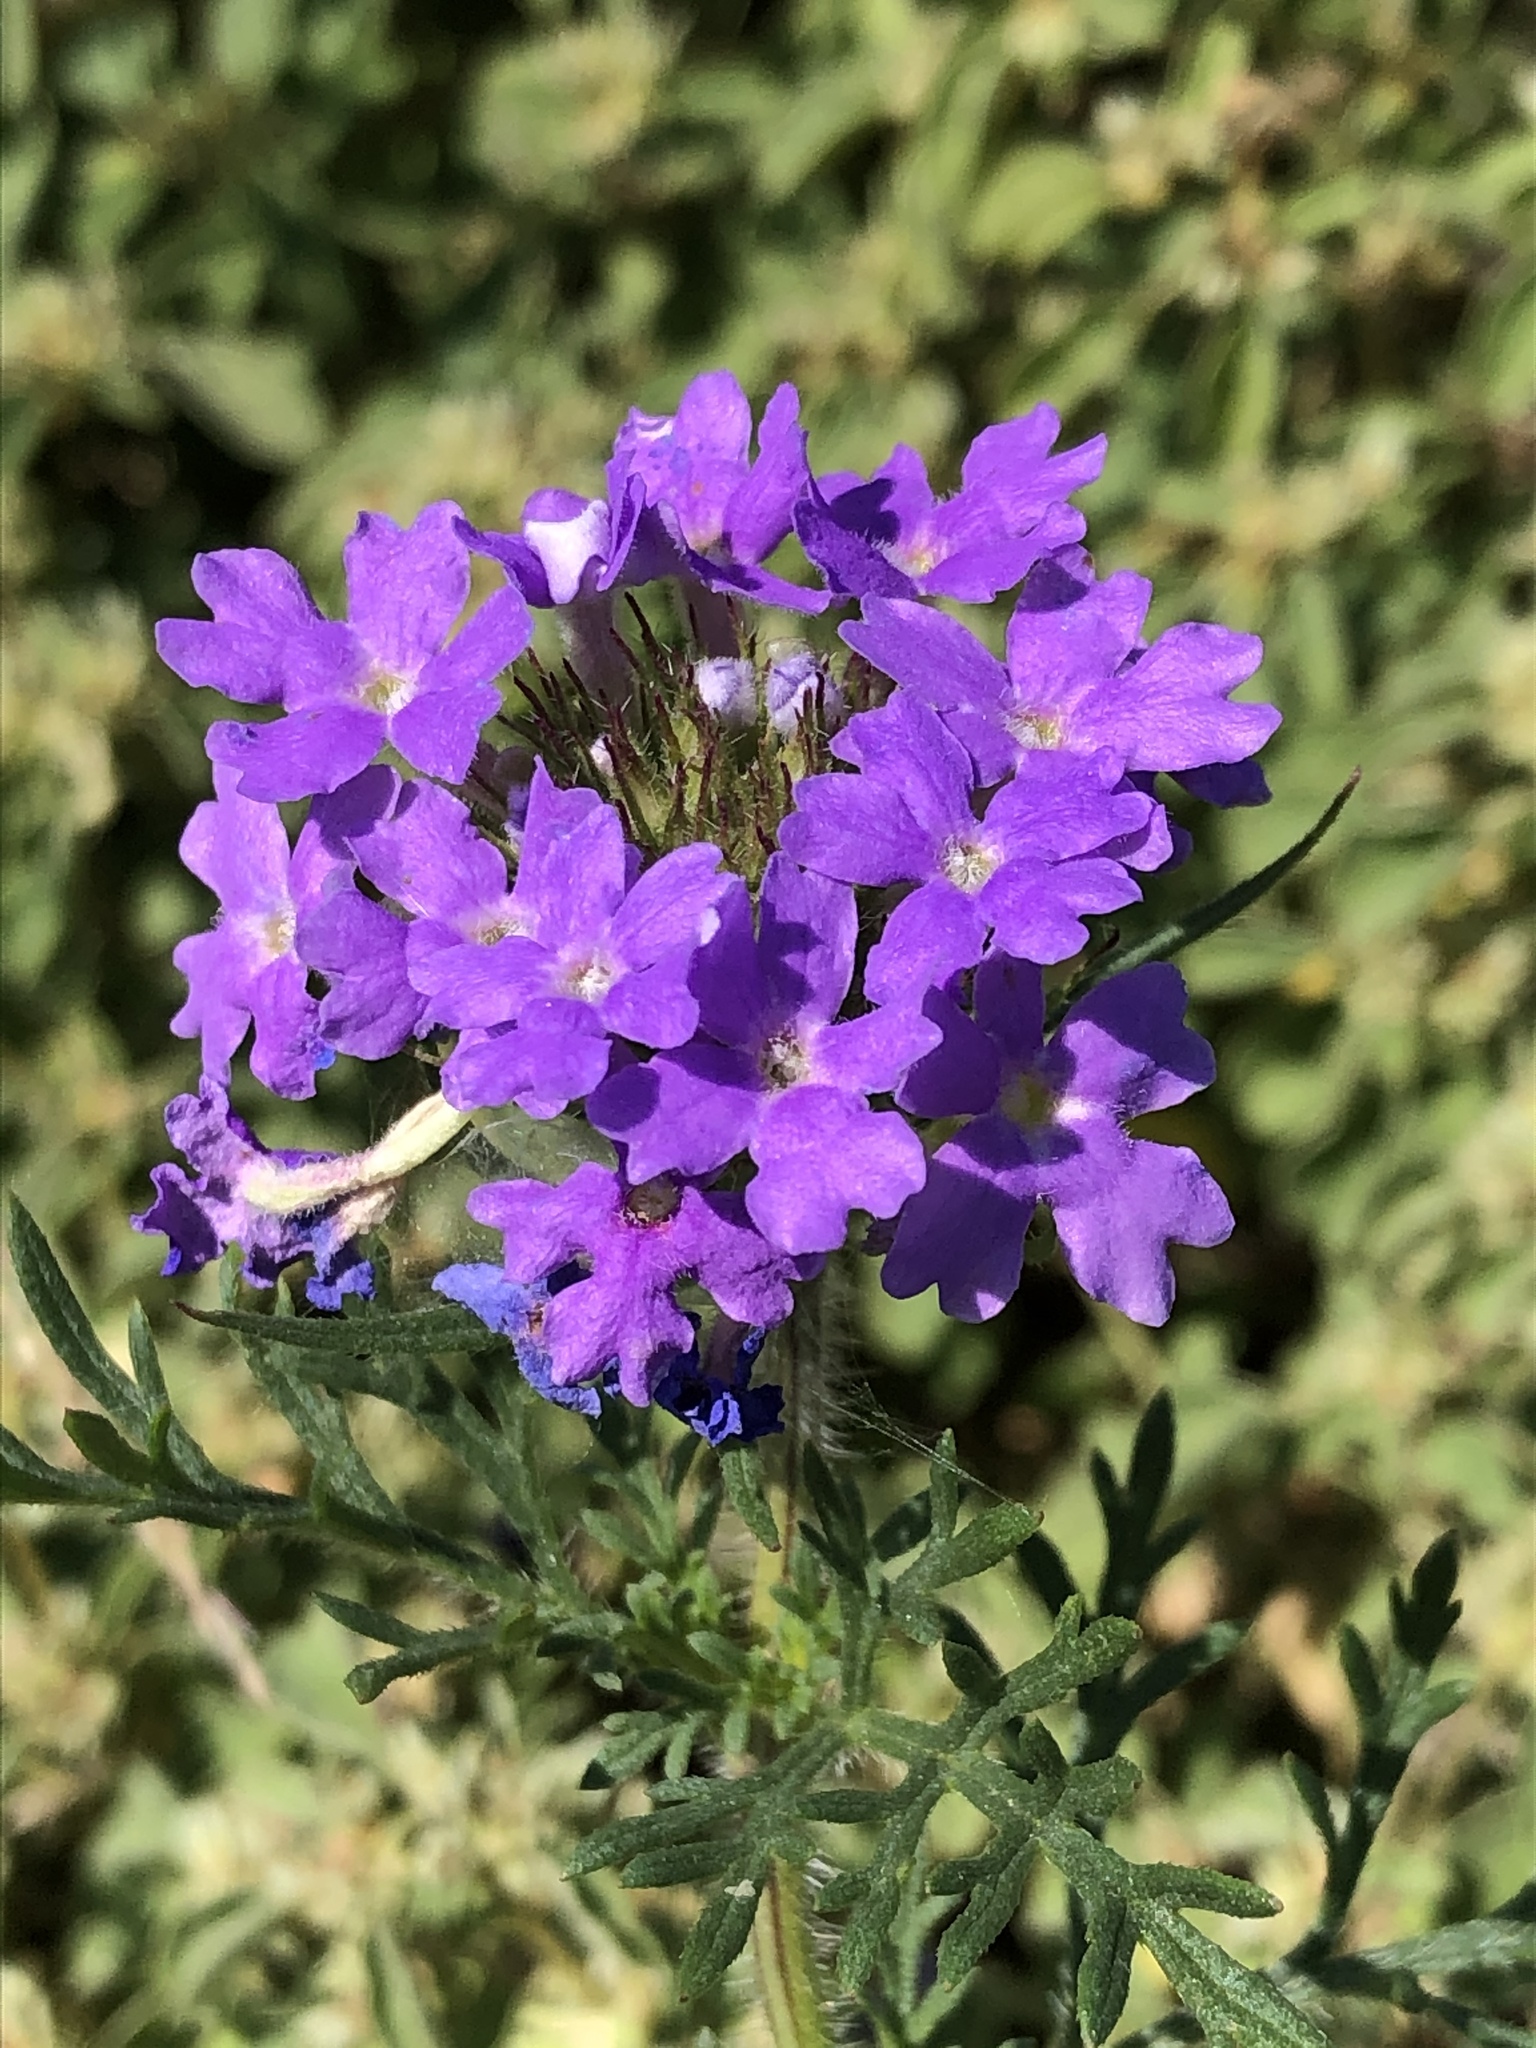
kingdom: Plantae
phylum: Tracheophyta
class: Magnoliopsida
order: Lamiales
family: Verbenaceae
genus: Verbena
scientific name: Verbena bipinnatifida
